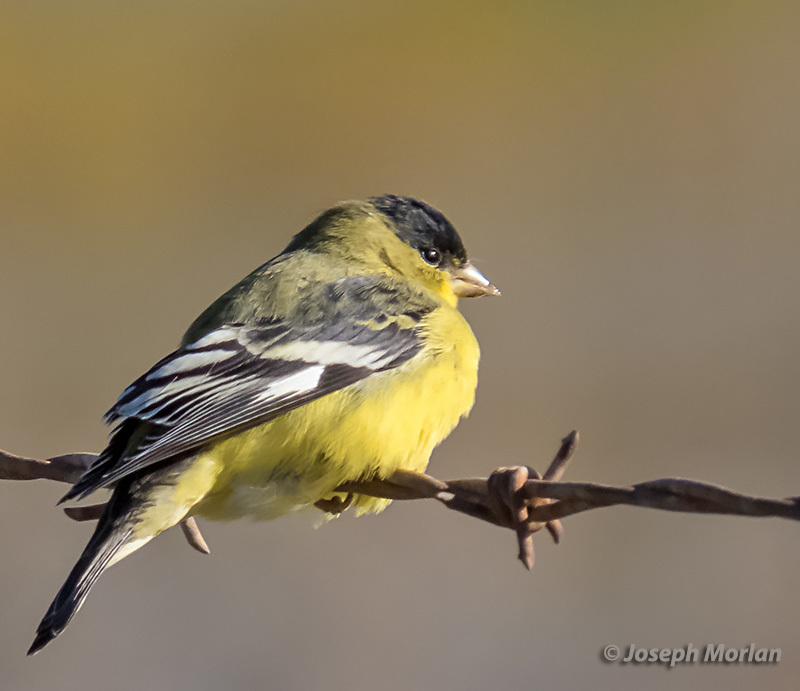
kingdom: Animalia
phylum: Chordata
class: Aves
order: Passeriformes
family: Fringillidae
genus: Spinus
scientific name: Spinus psaltria
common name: Lesser goldfinch
